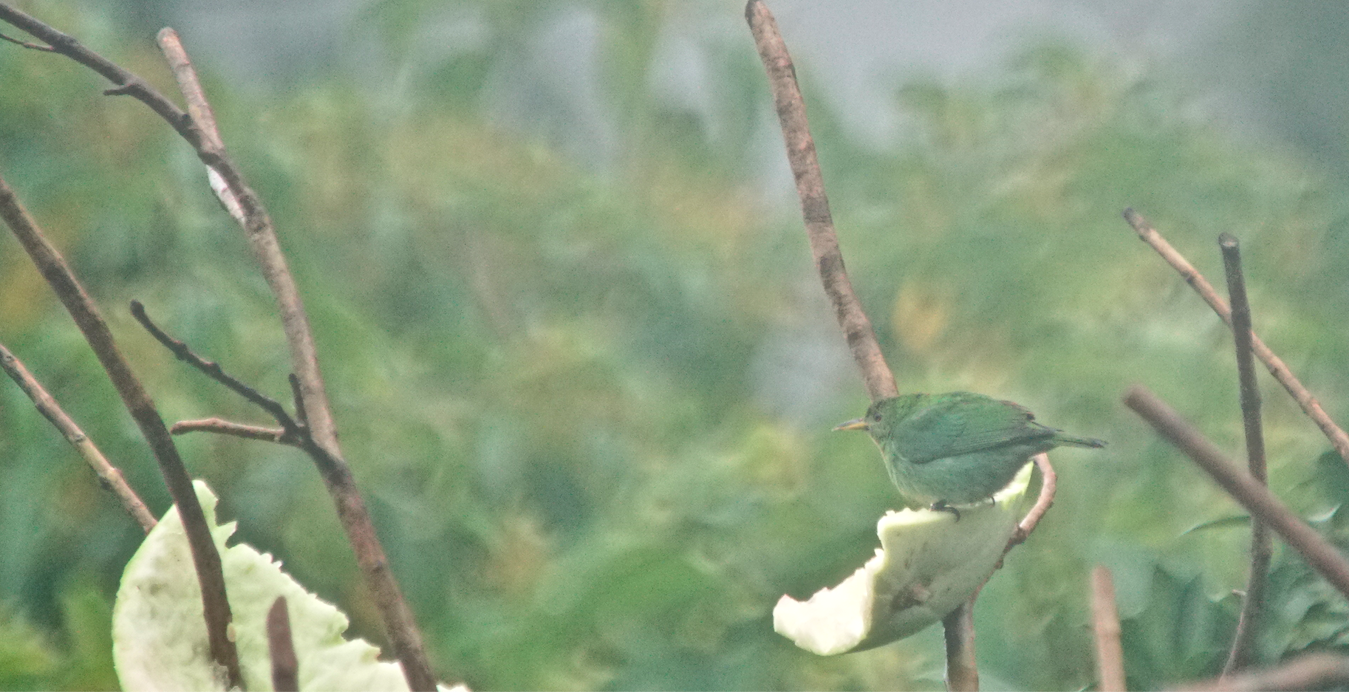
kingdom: Animalia
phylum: Chordata
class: Aves
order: Passeriformes
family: Thraupidae
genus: Chlorophanes
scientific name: Chlorophanes spiza
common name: Green honeycreeper
